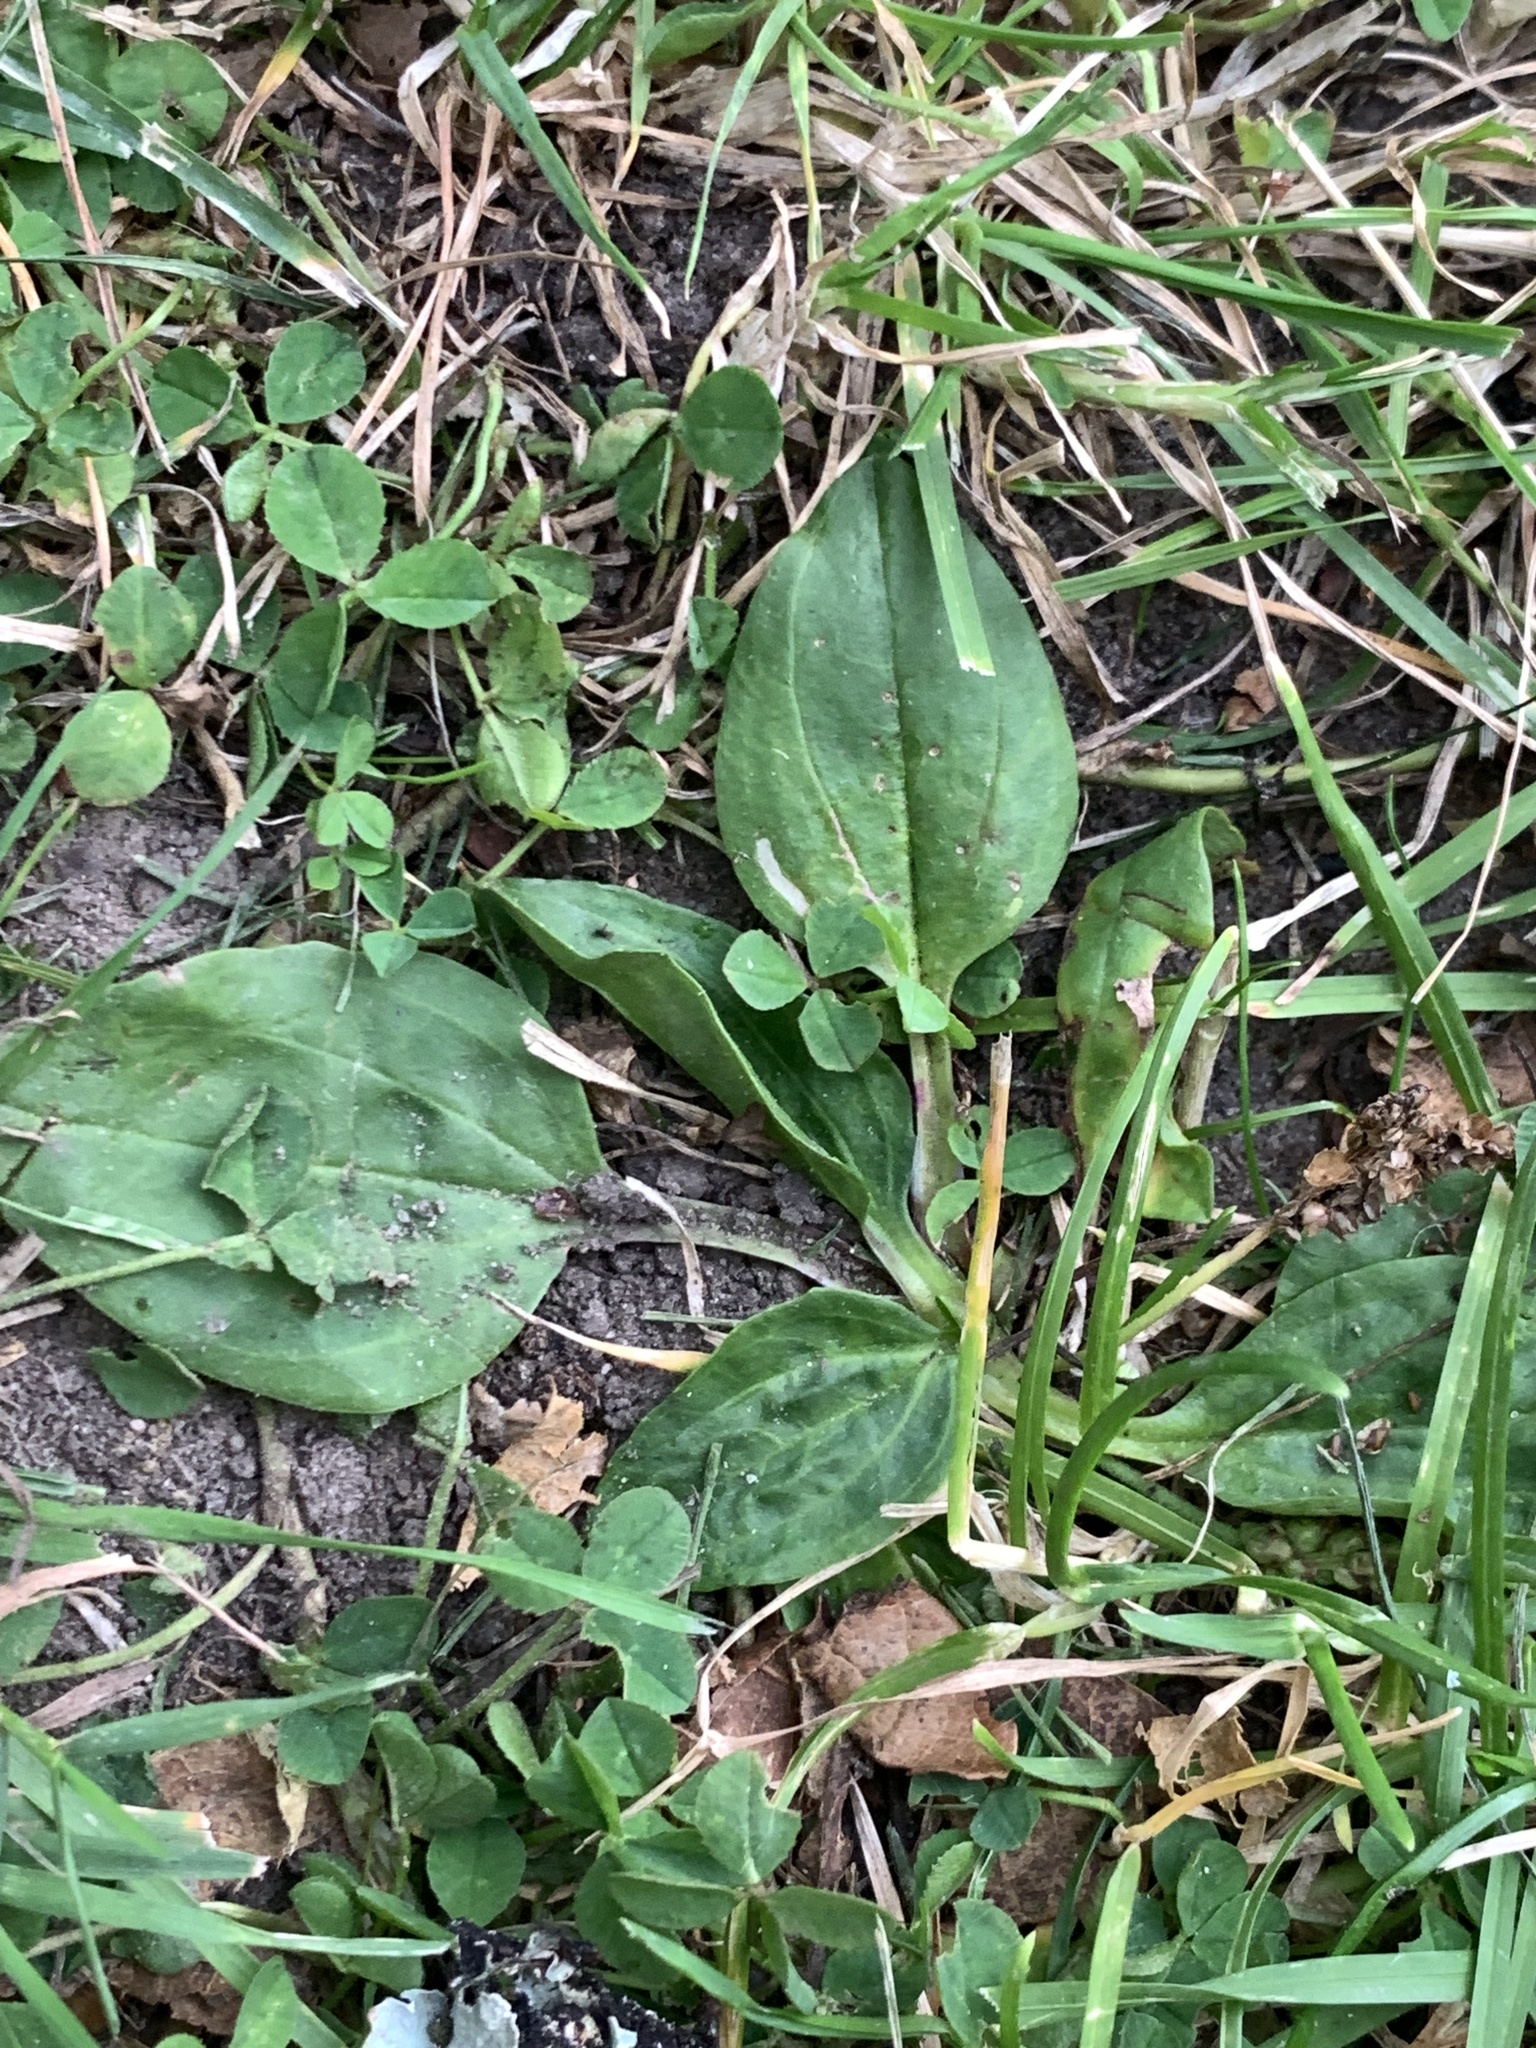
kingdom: Plantae
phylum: Tracheophyta
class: Magnoliopsida
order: Lamiales
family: Plantaginaceae
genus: Plantago
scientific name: Plantago major
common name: Common plantain
